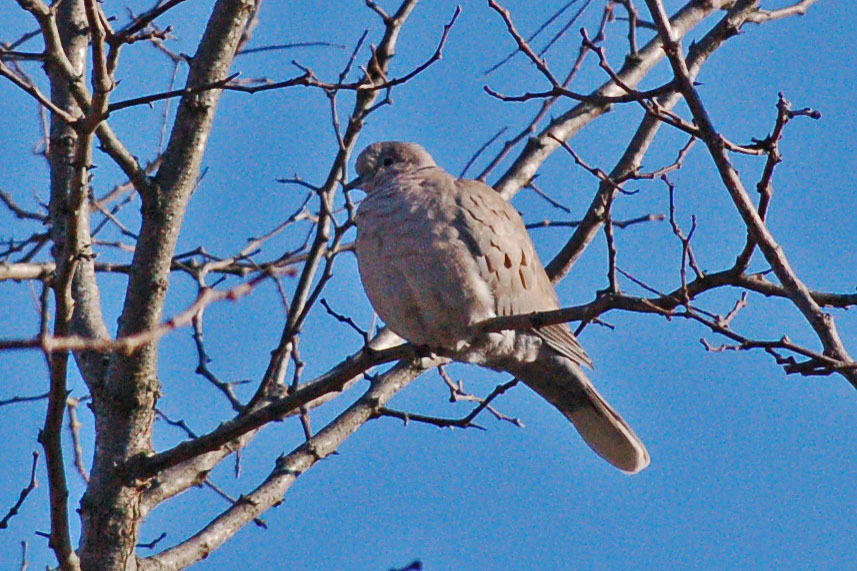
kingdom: Animalia
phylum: Chordata
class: Aves
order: Columbiformes
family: Columbidae
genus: Streptopelia
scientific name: Streptopelia decaocto
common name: Eurasian collared dove
